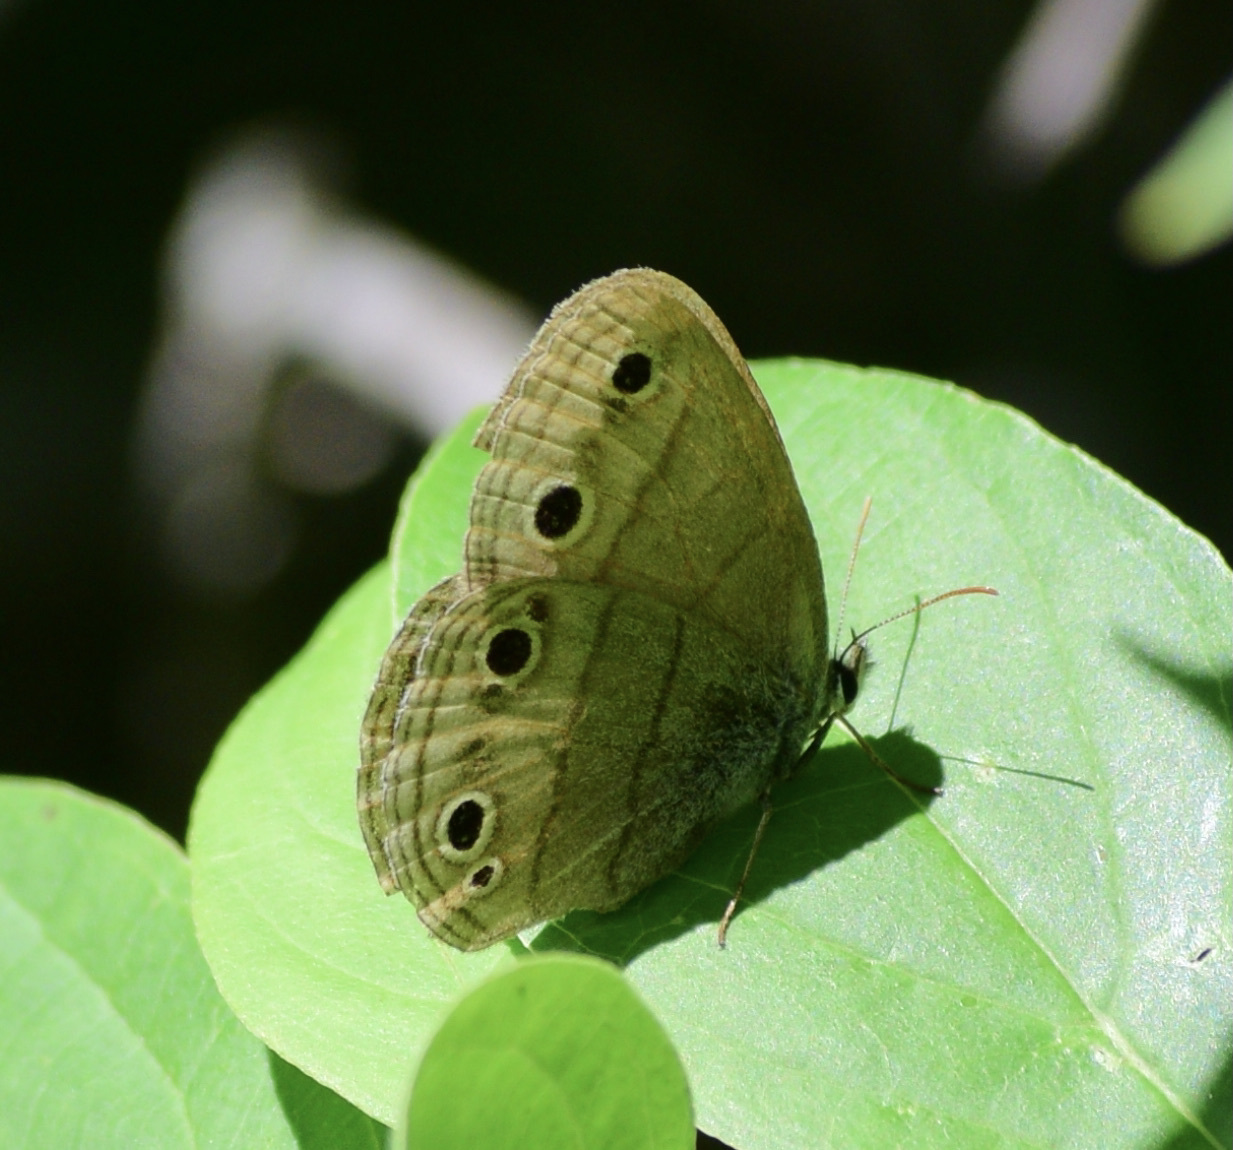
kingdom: Animalia
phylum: Arthropoda
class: Insecta
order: Lepidoptera
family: Nymphalidae
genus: Euptychia
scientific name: Euptychia cymela
